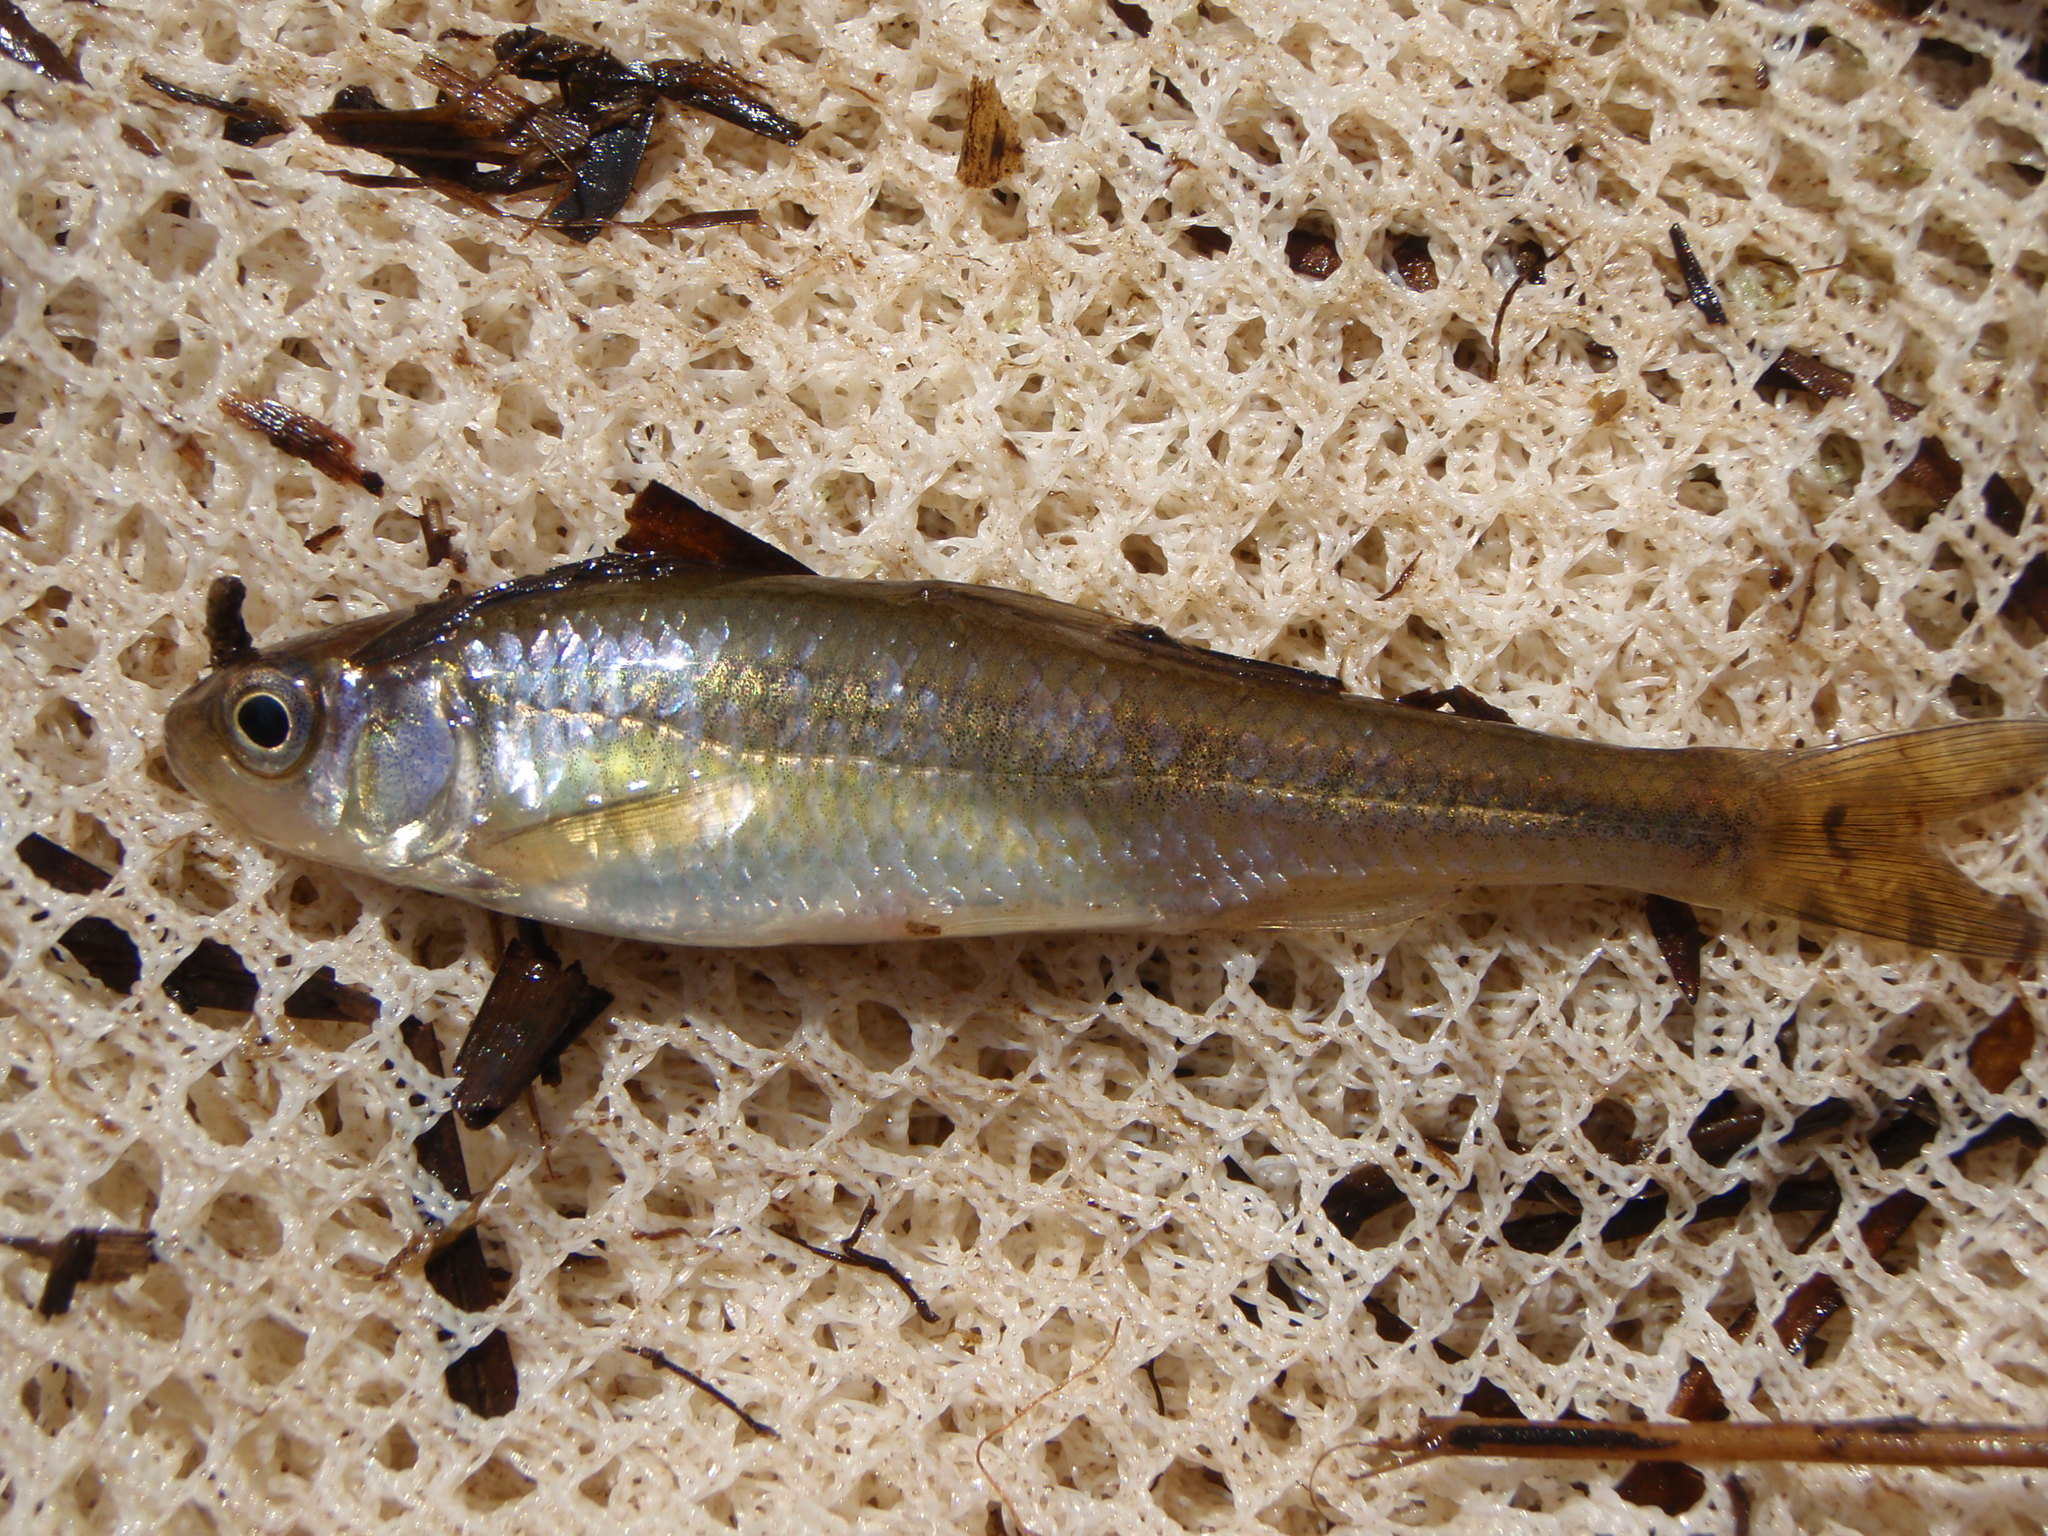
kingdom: Animalia
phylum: Chordata
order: Cypriniformes
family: Cyprinidae
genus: Hybognathus
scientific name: Hybognathus hankinsoni
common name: Brassy minnow
